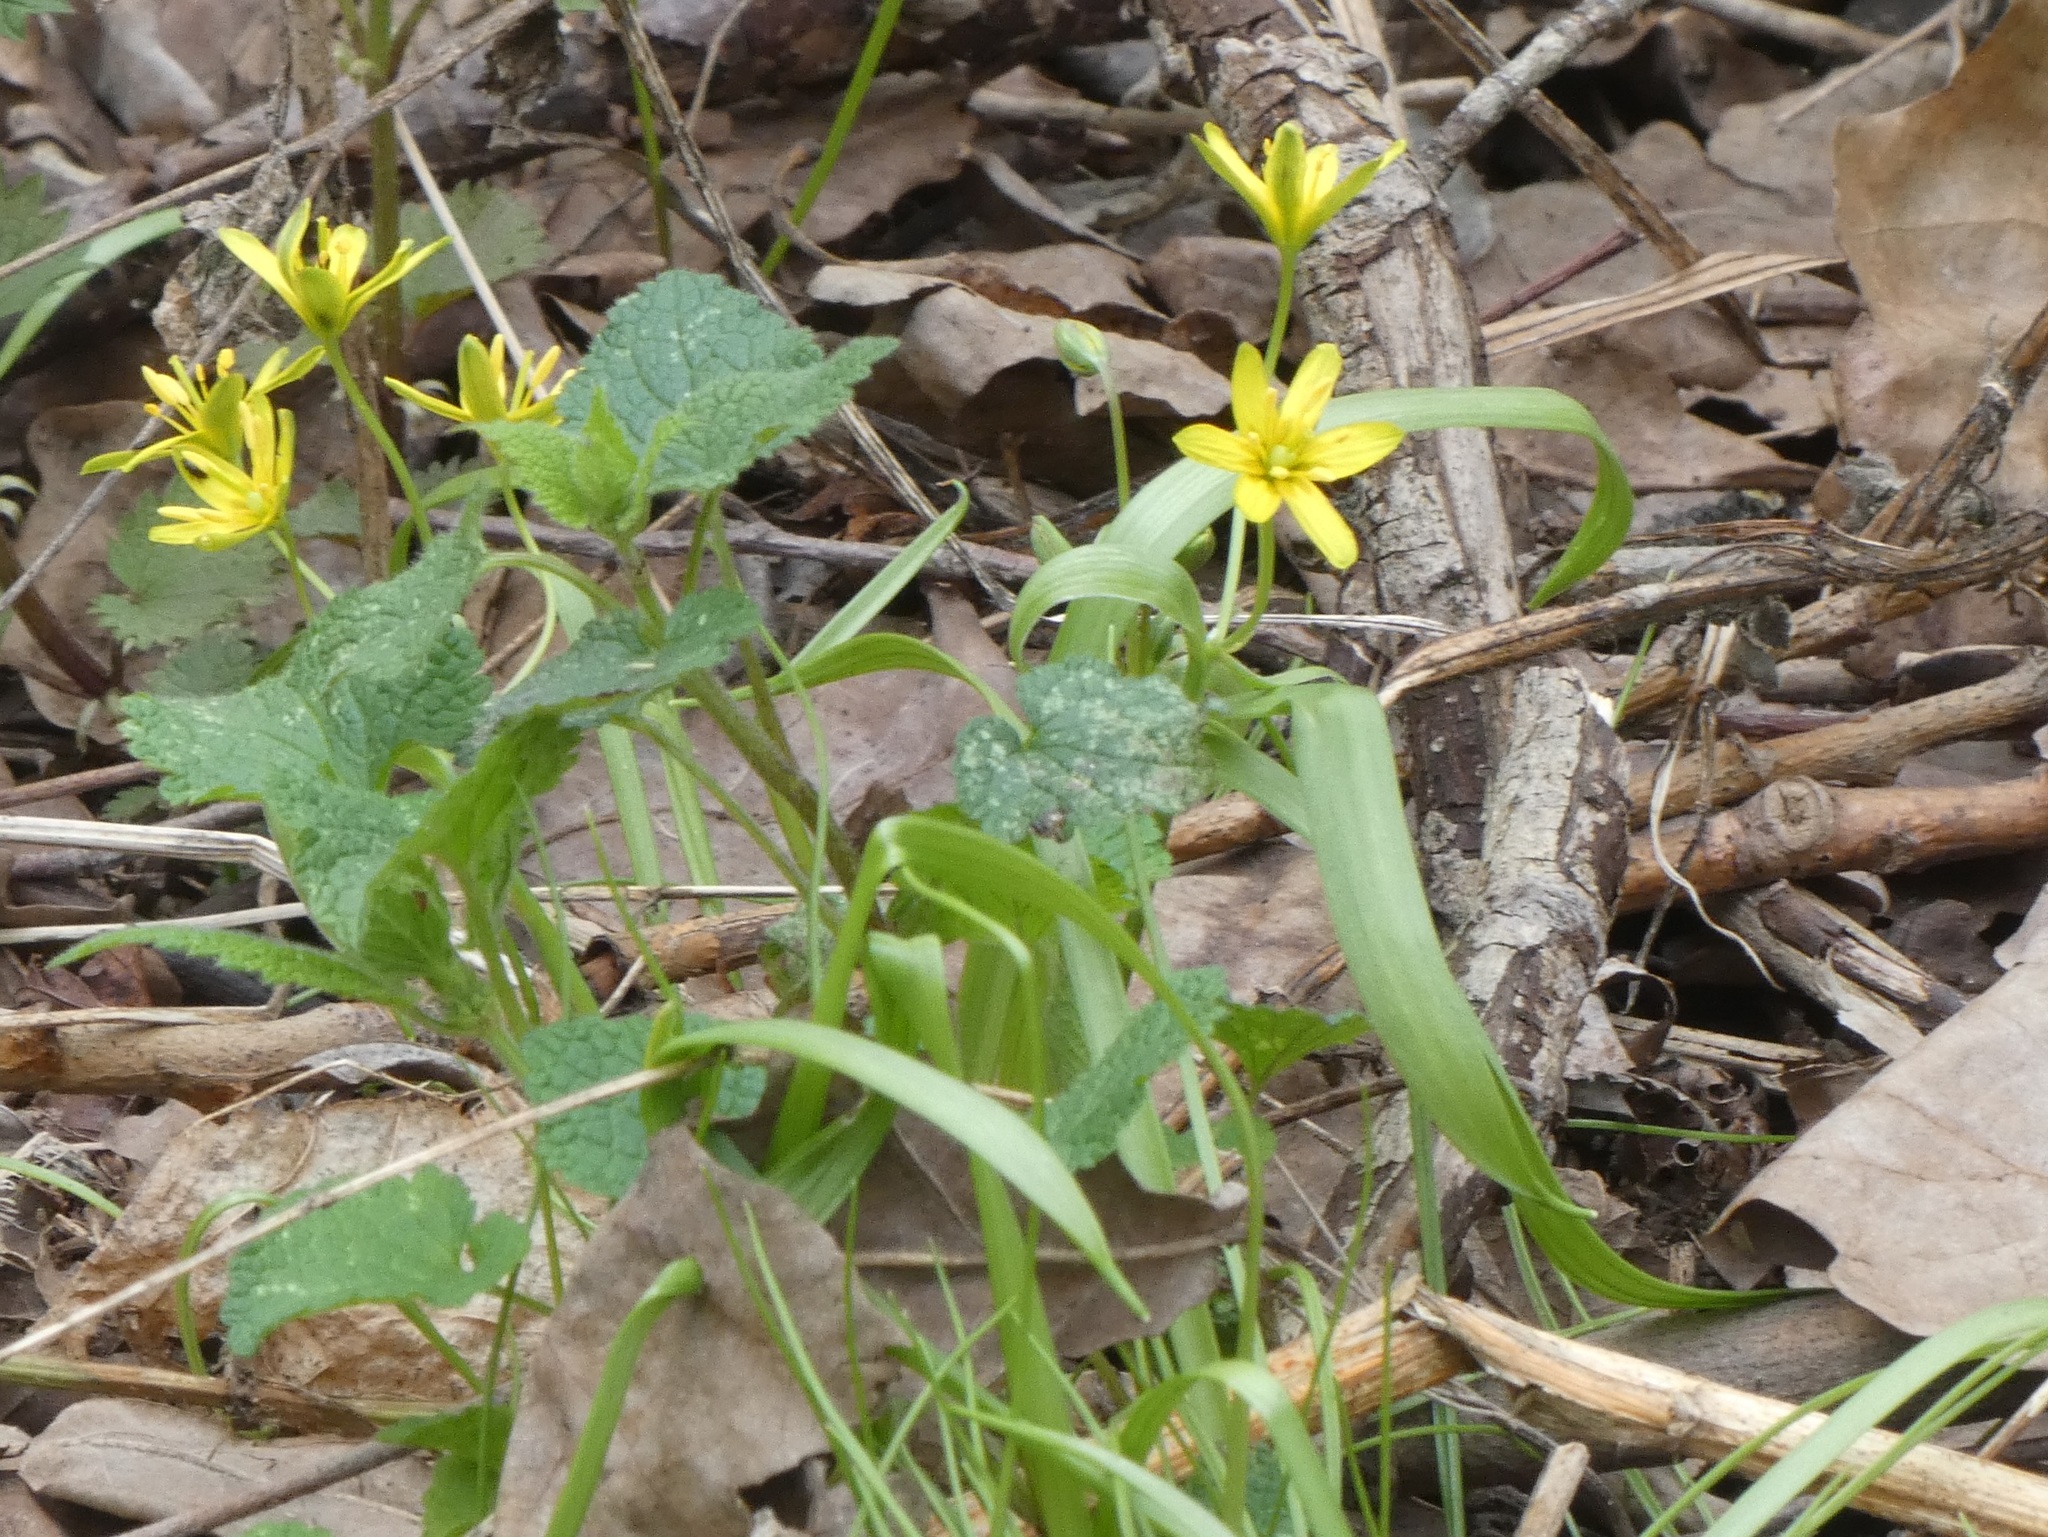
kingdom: Plantae
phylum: Tracheophyta
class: Liliopsida
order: Liliales
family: Liliaceae
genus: Gagea
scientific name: Gagea lutea
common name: Yellow star-of-bethlehem
